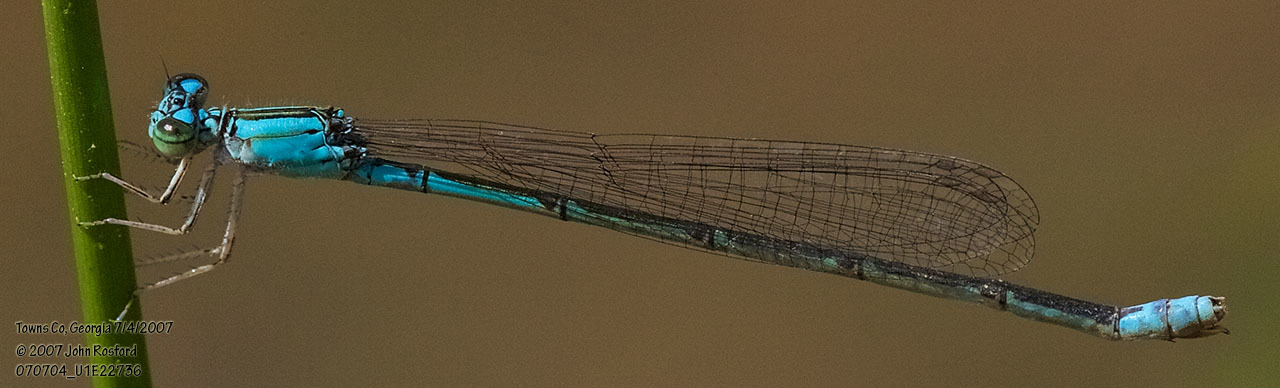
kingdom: Animalia
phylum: Arthropoda
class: Insecta
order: Odonata
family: Coenagrionidae
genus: Enallagma
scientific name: Enallagma traviatum
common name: Slender bluet
